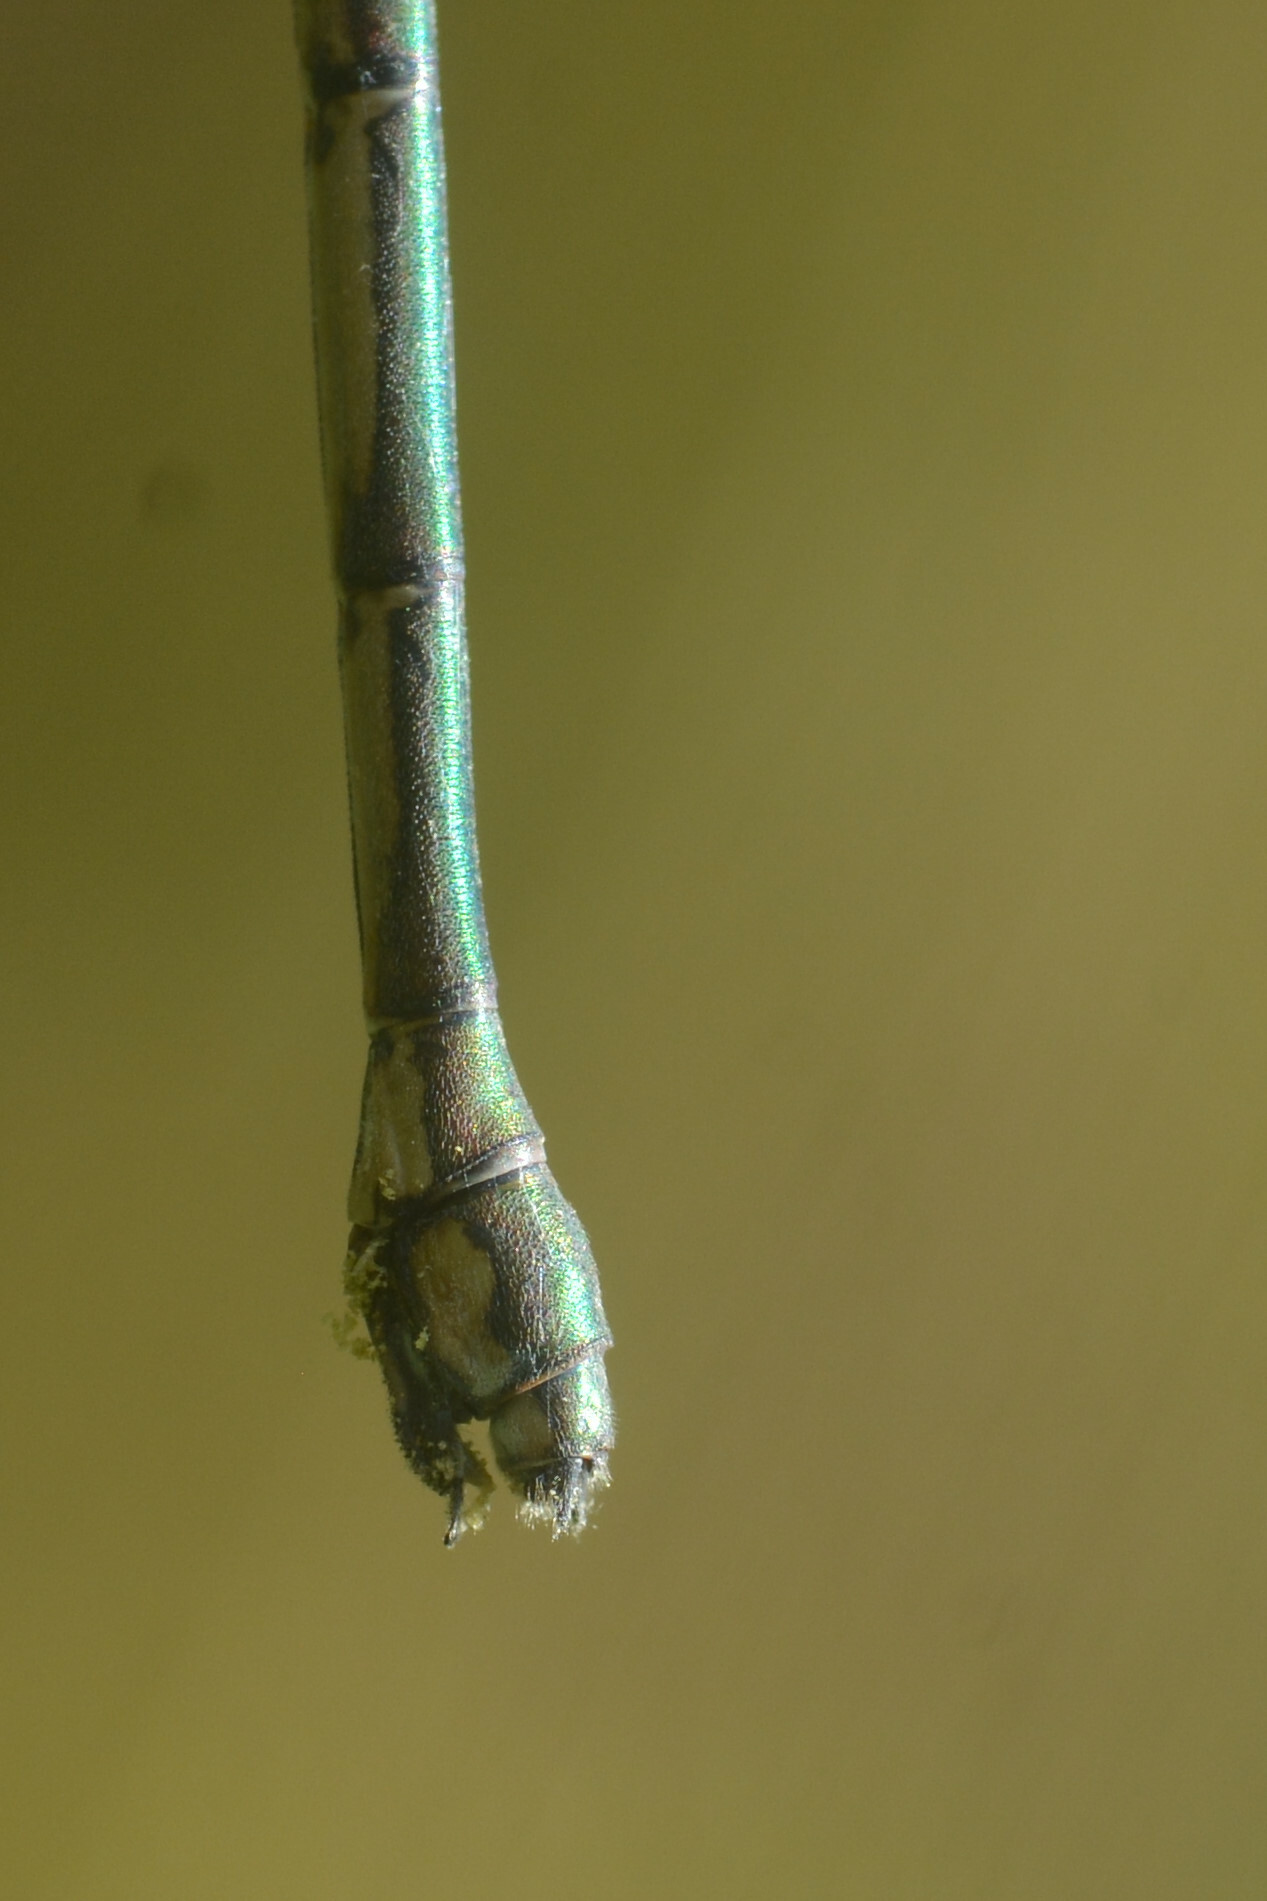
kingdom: Animalia
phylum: Arthropoda
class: Insecta
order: Odonata
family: Lestidae
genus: Chalcolestes
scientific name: Chalcolestes viridis
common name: Green emerald damselfly
